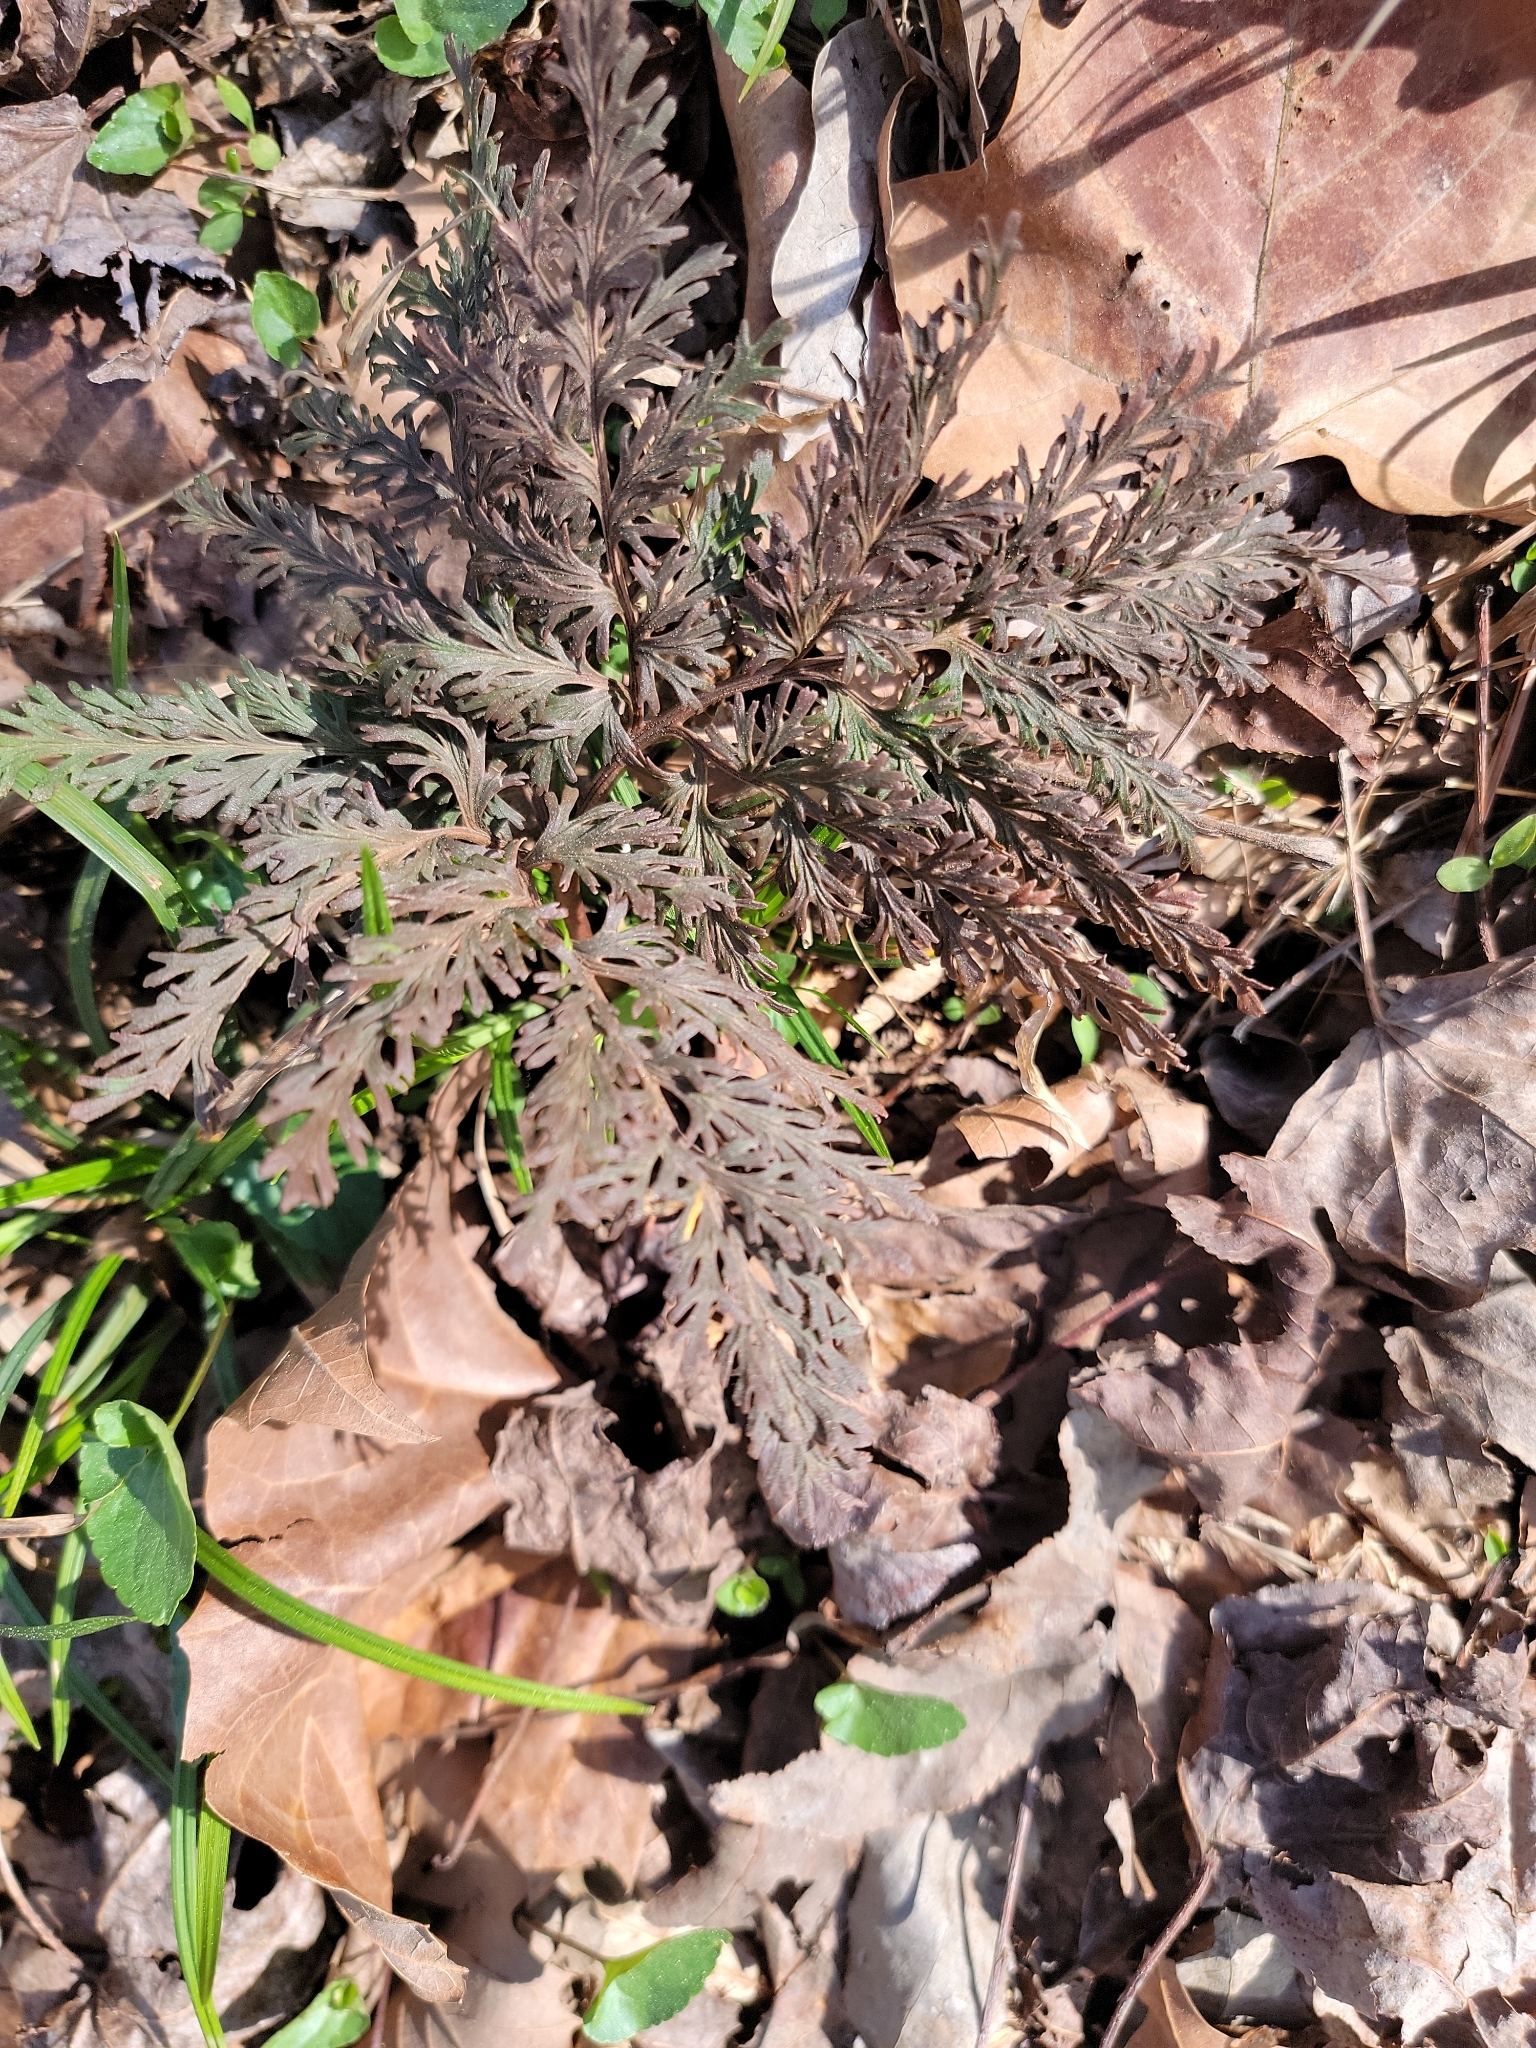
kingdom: Plantae
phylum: Tracheophyta
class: Polypodiopsida
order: Ophioglossales
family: Ophioglossaceae
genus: Sceptridium
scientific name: Sceptridium dissectum
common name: Cut-leaved grapefern
